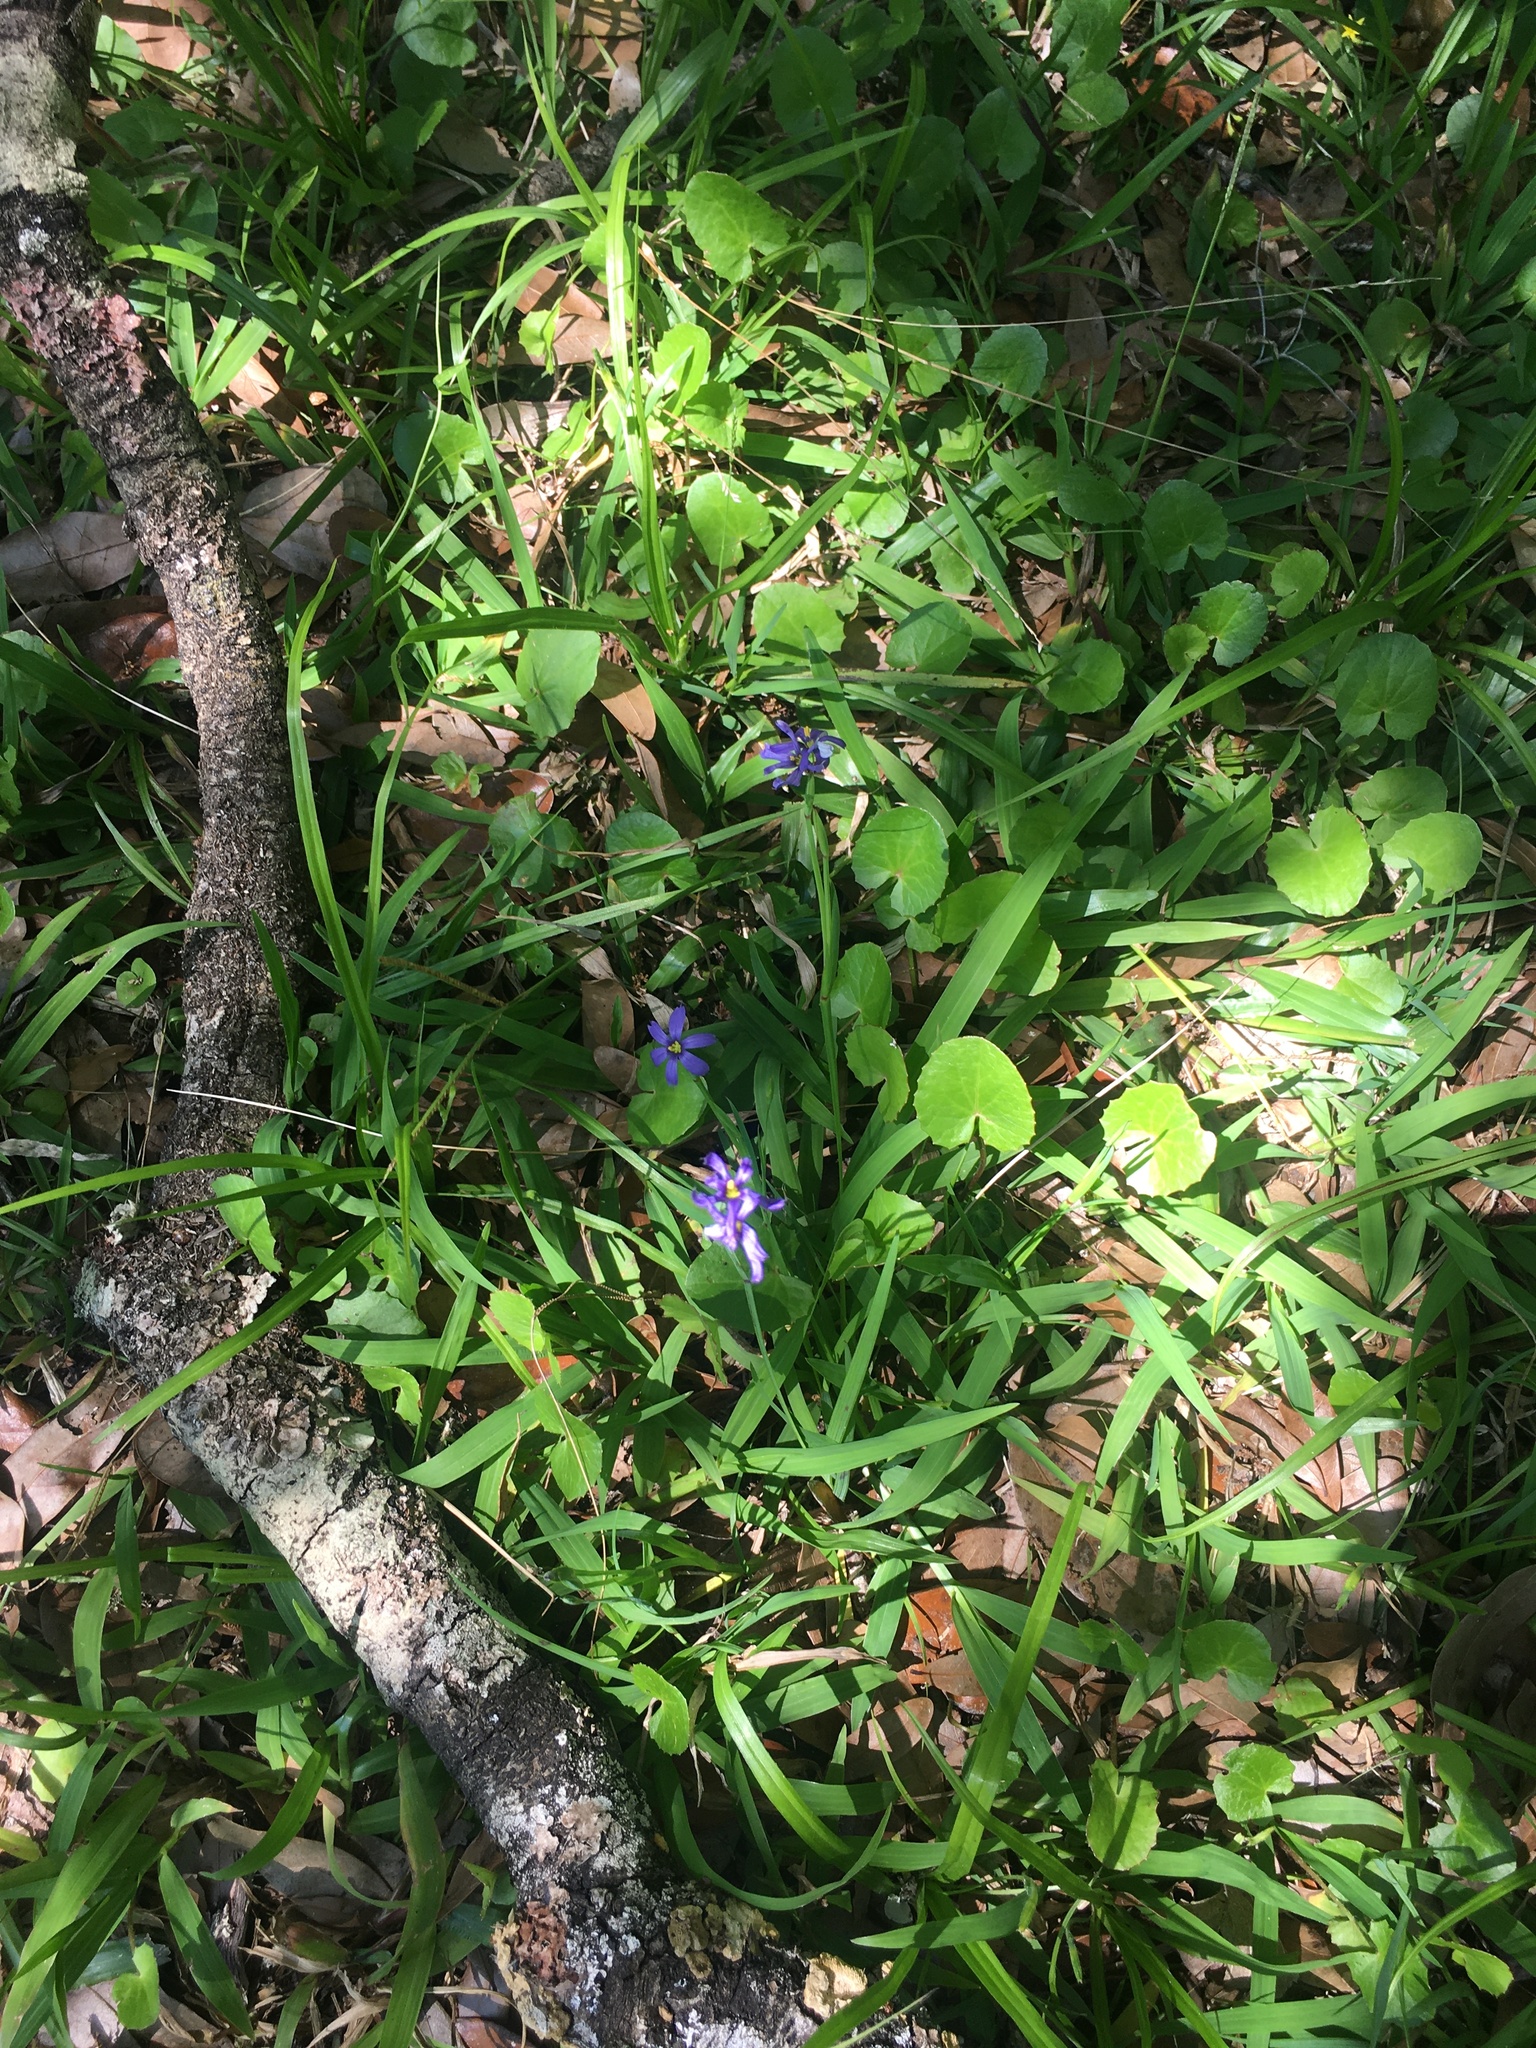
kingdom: Plantae
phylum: Tracheophyta
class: Liliopsida
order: Asparagales
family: Iridaceae
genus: Sisyrinchium
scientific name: Sisyrinchium angustifolium
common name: Narrow-leaf blue-eyed-grass
